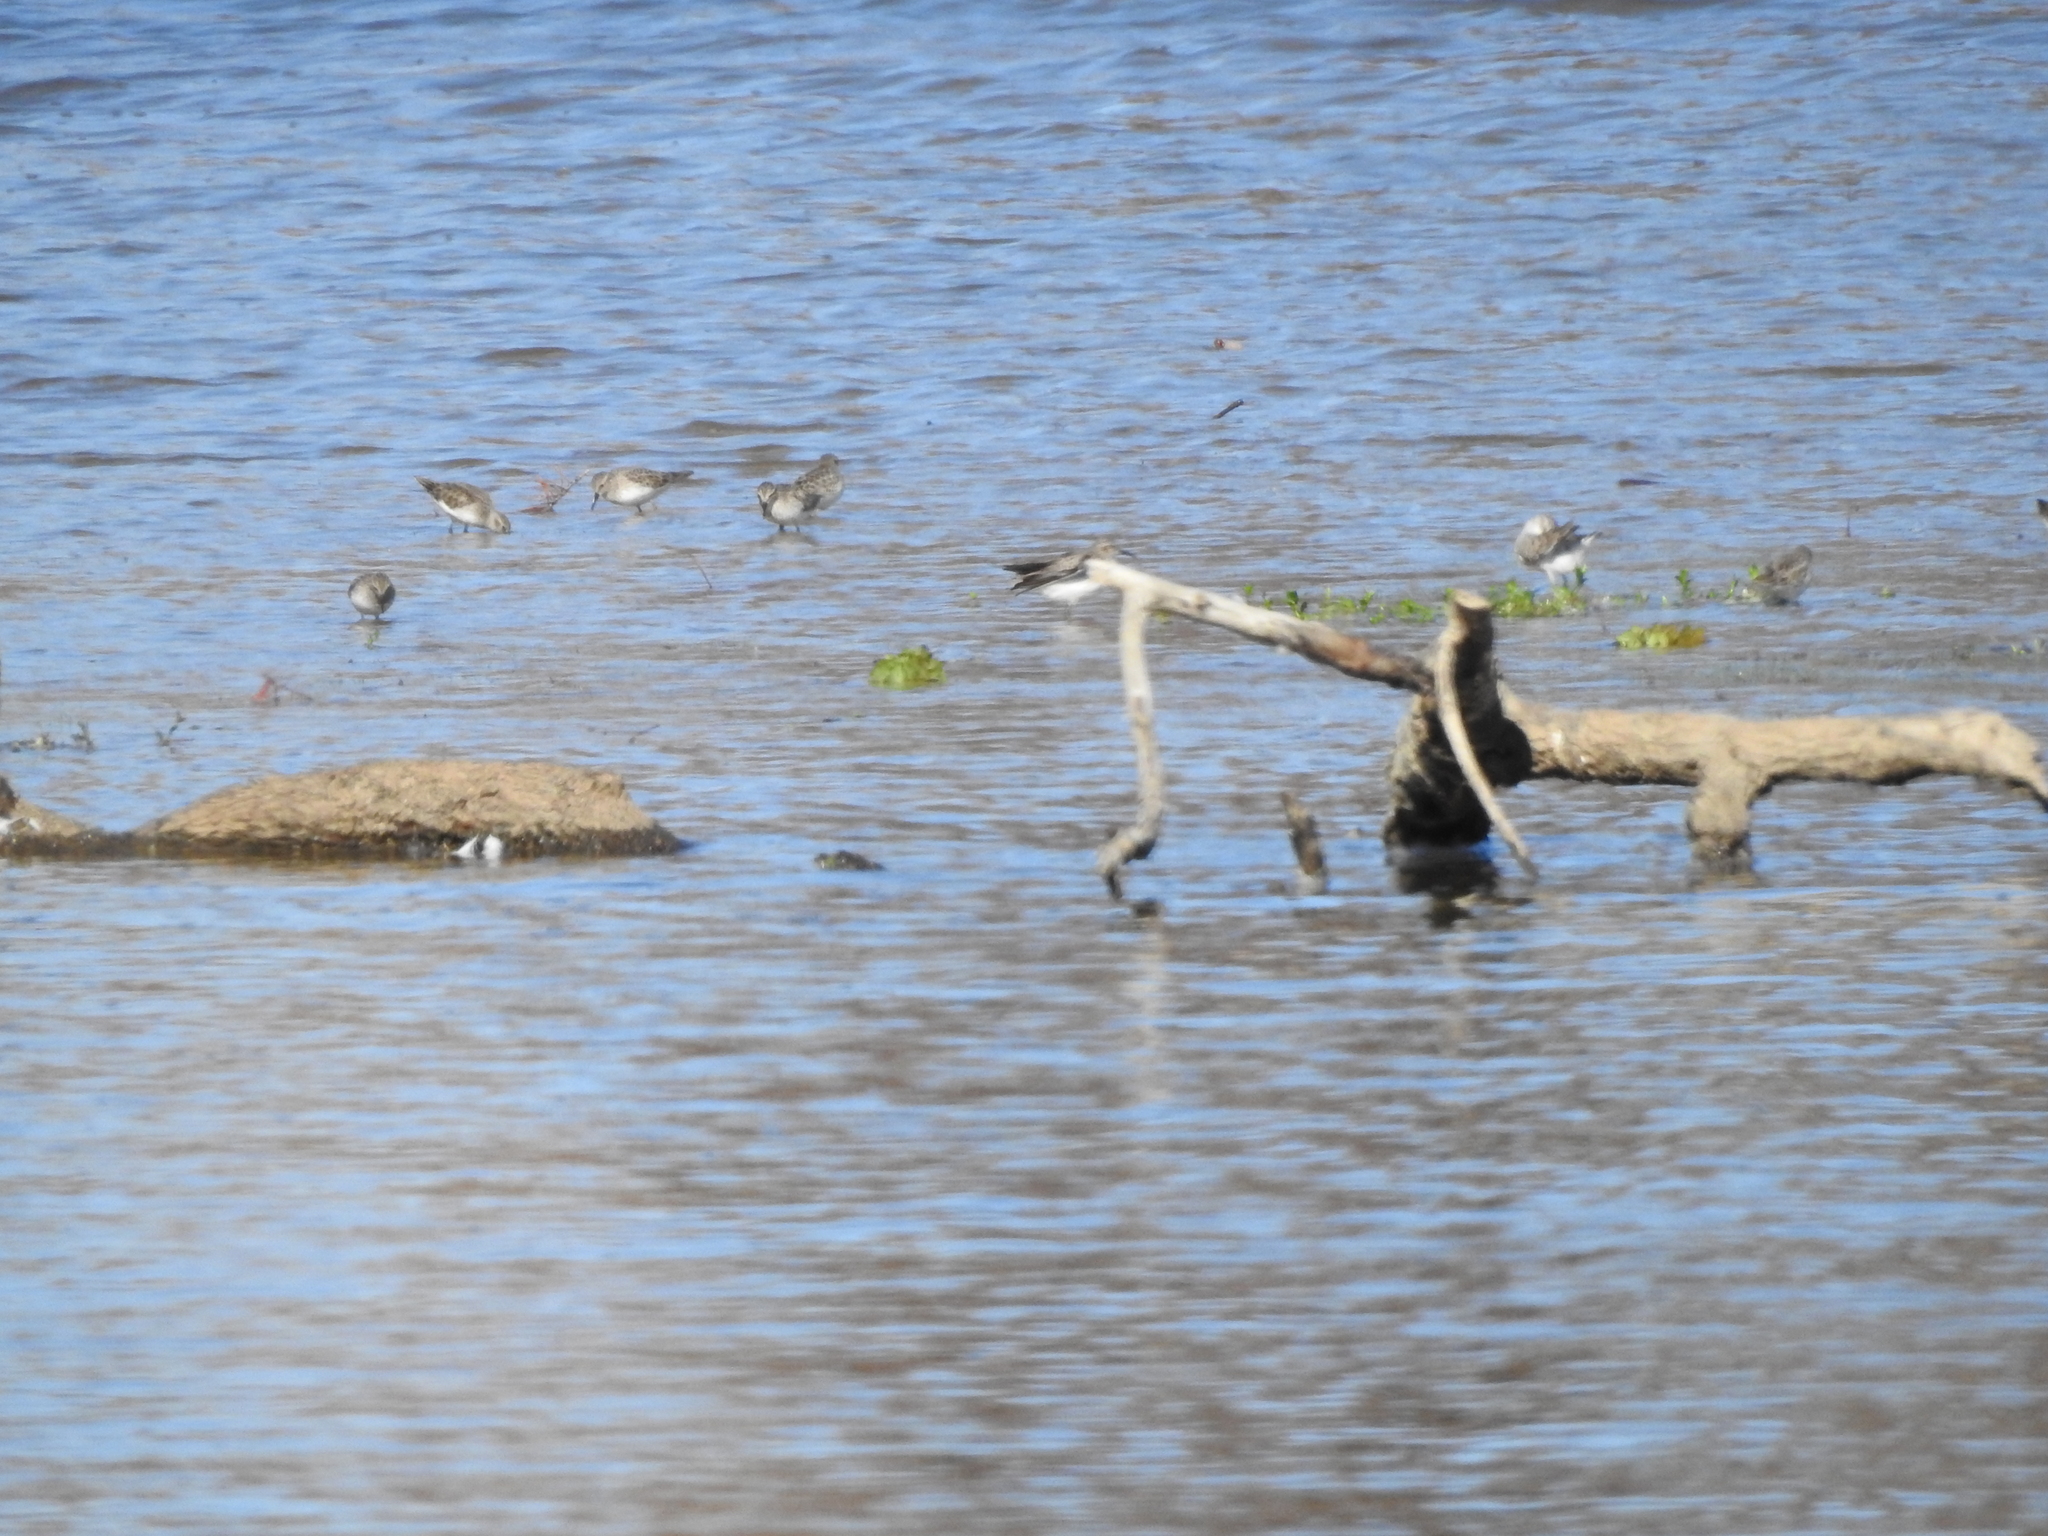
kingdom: Animalia
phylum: Chordata
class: Aves
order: Charadriiformes
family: Scolopacidae
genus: Calidris
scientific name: Calidris minutilla
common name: Least sandpiper
